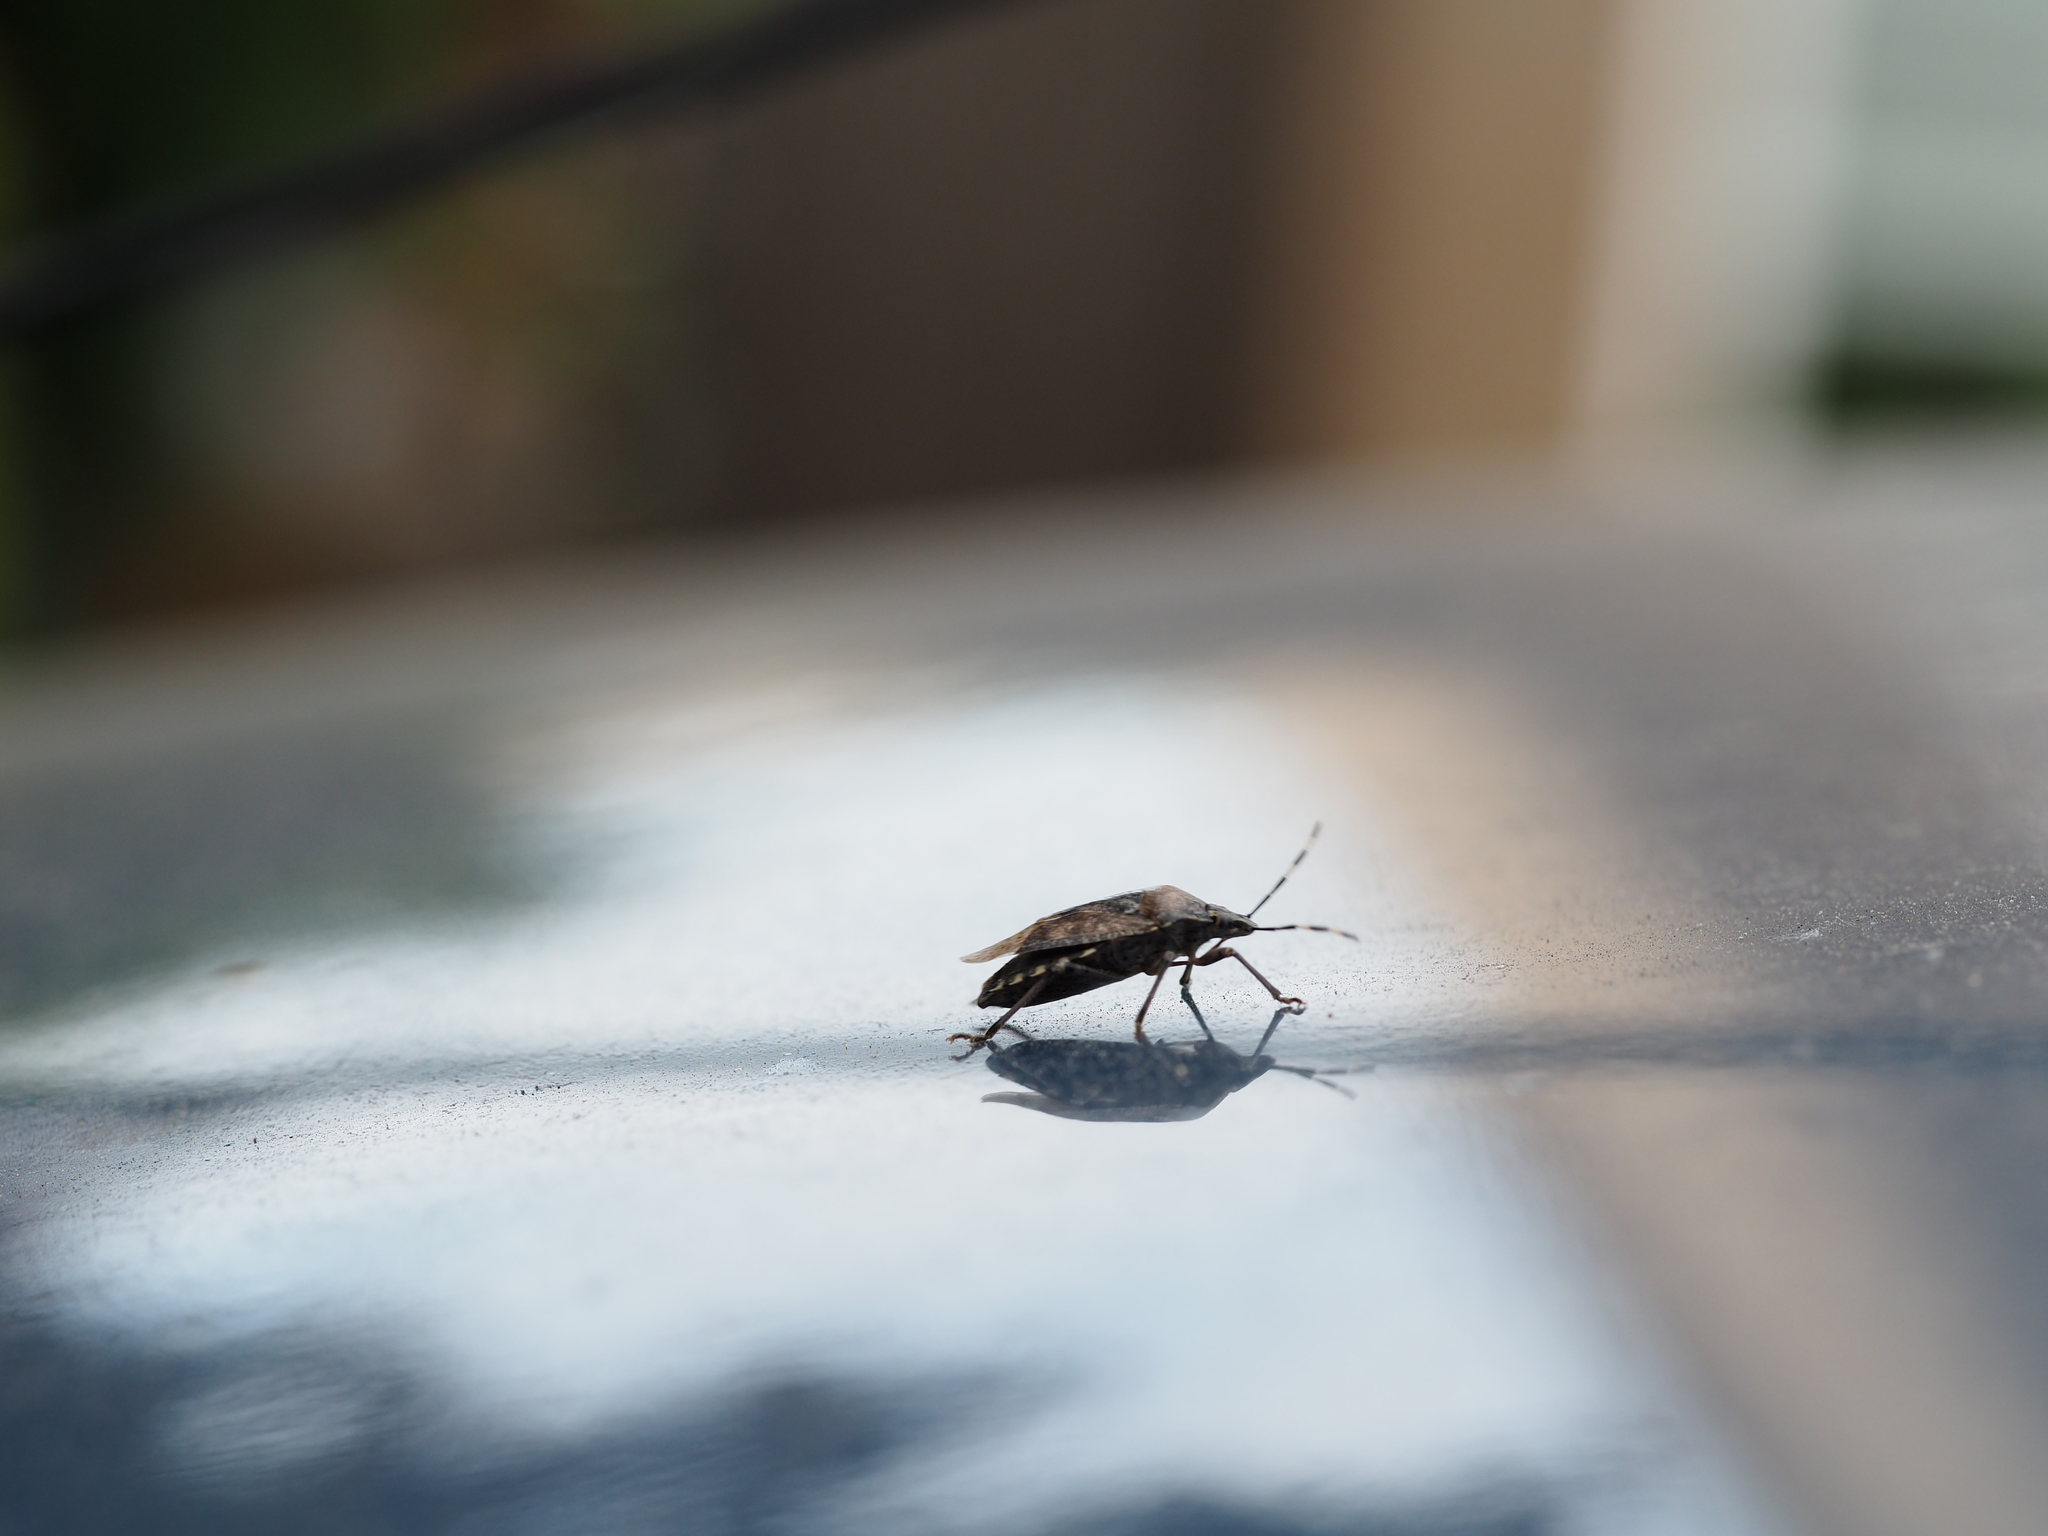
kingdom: Animalia
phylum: Arthropoda
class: Insecta
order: Hemiptera
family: Pentatomidae
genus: Rhaphigaster
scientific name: Rhaphigaster nebulosa
